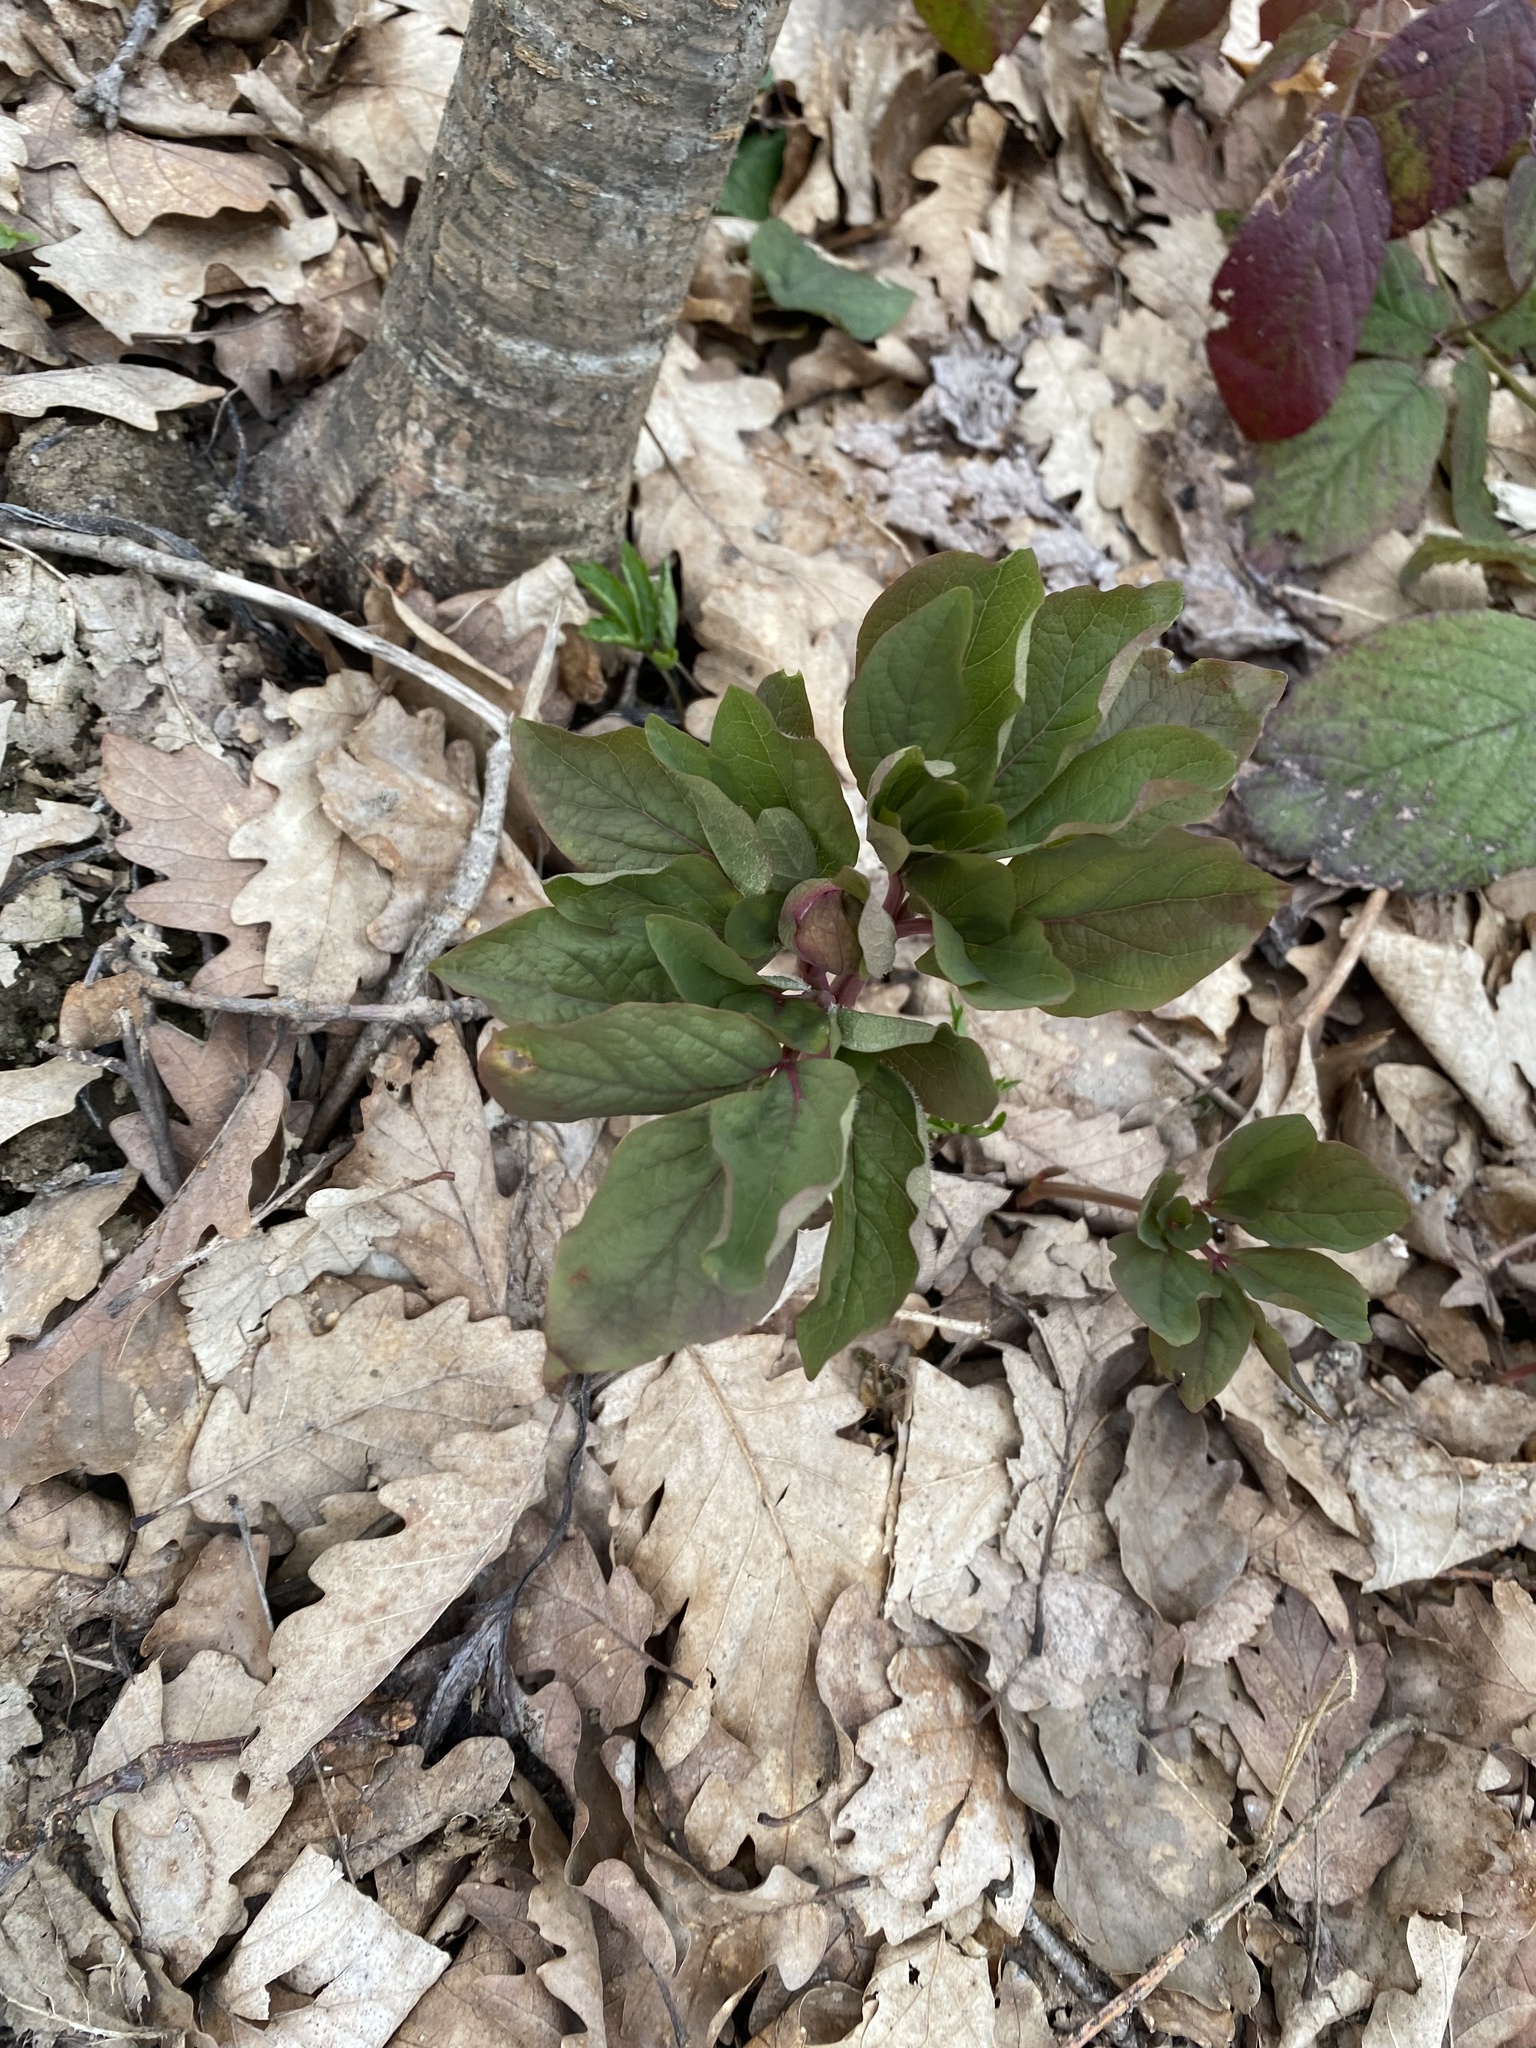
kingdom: Plantae
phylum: Tracheophyta
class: Magnoliopsida
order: Saxifragales
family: Paeoniaceae
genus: Paeonia
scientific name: Paeonia caucasica
